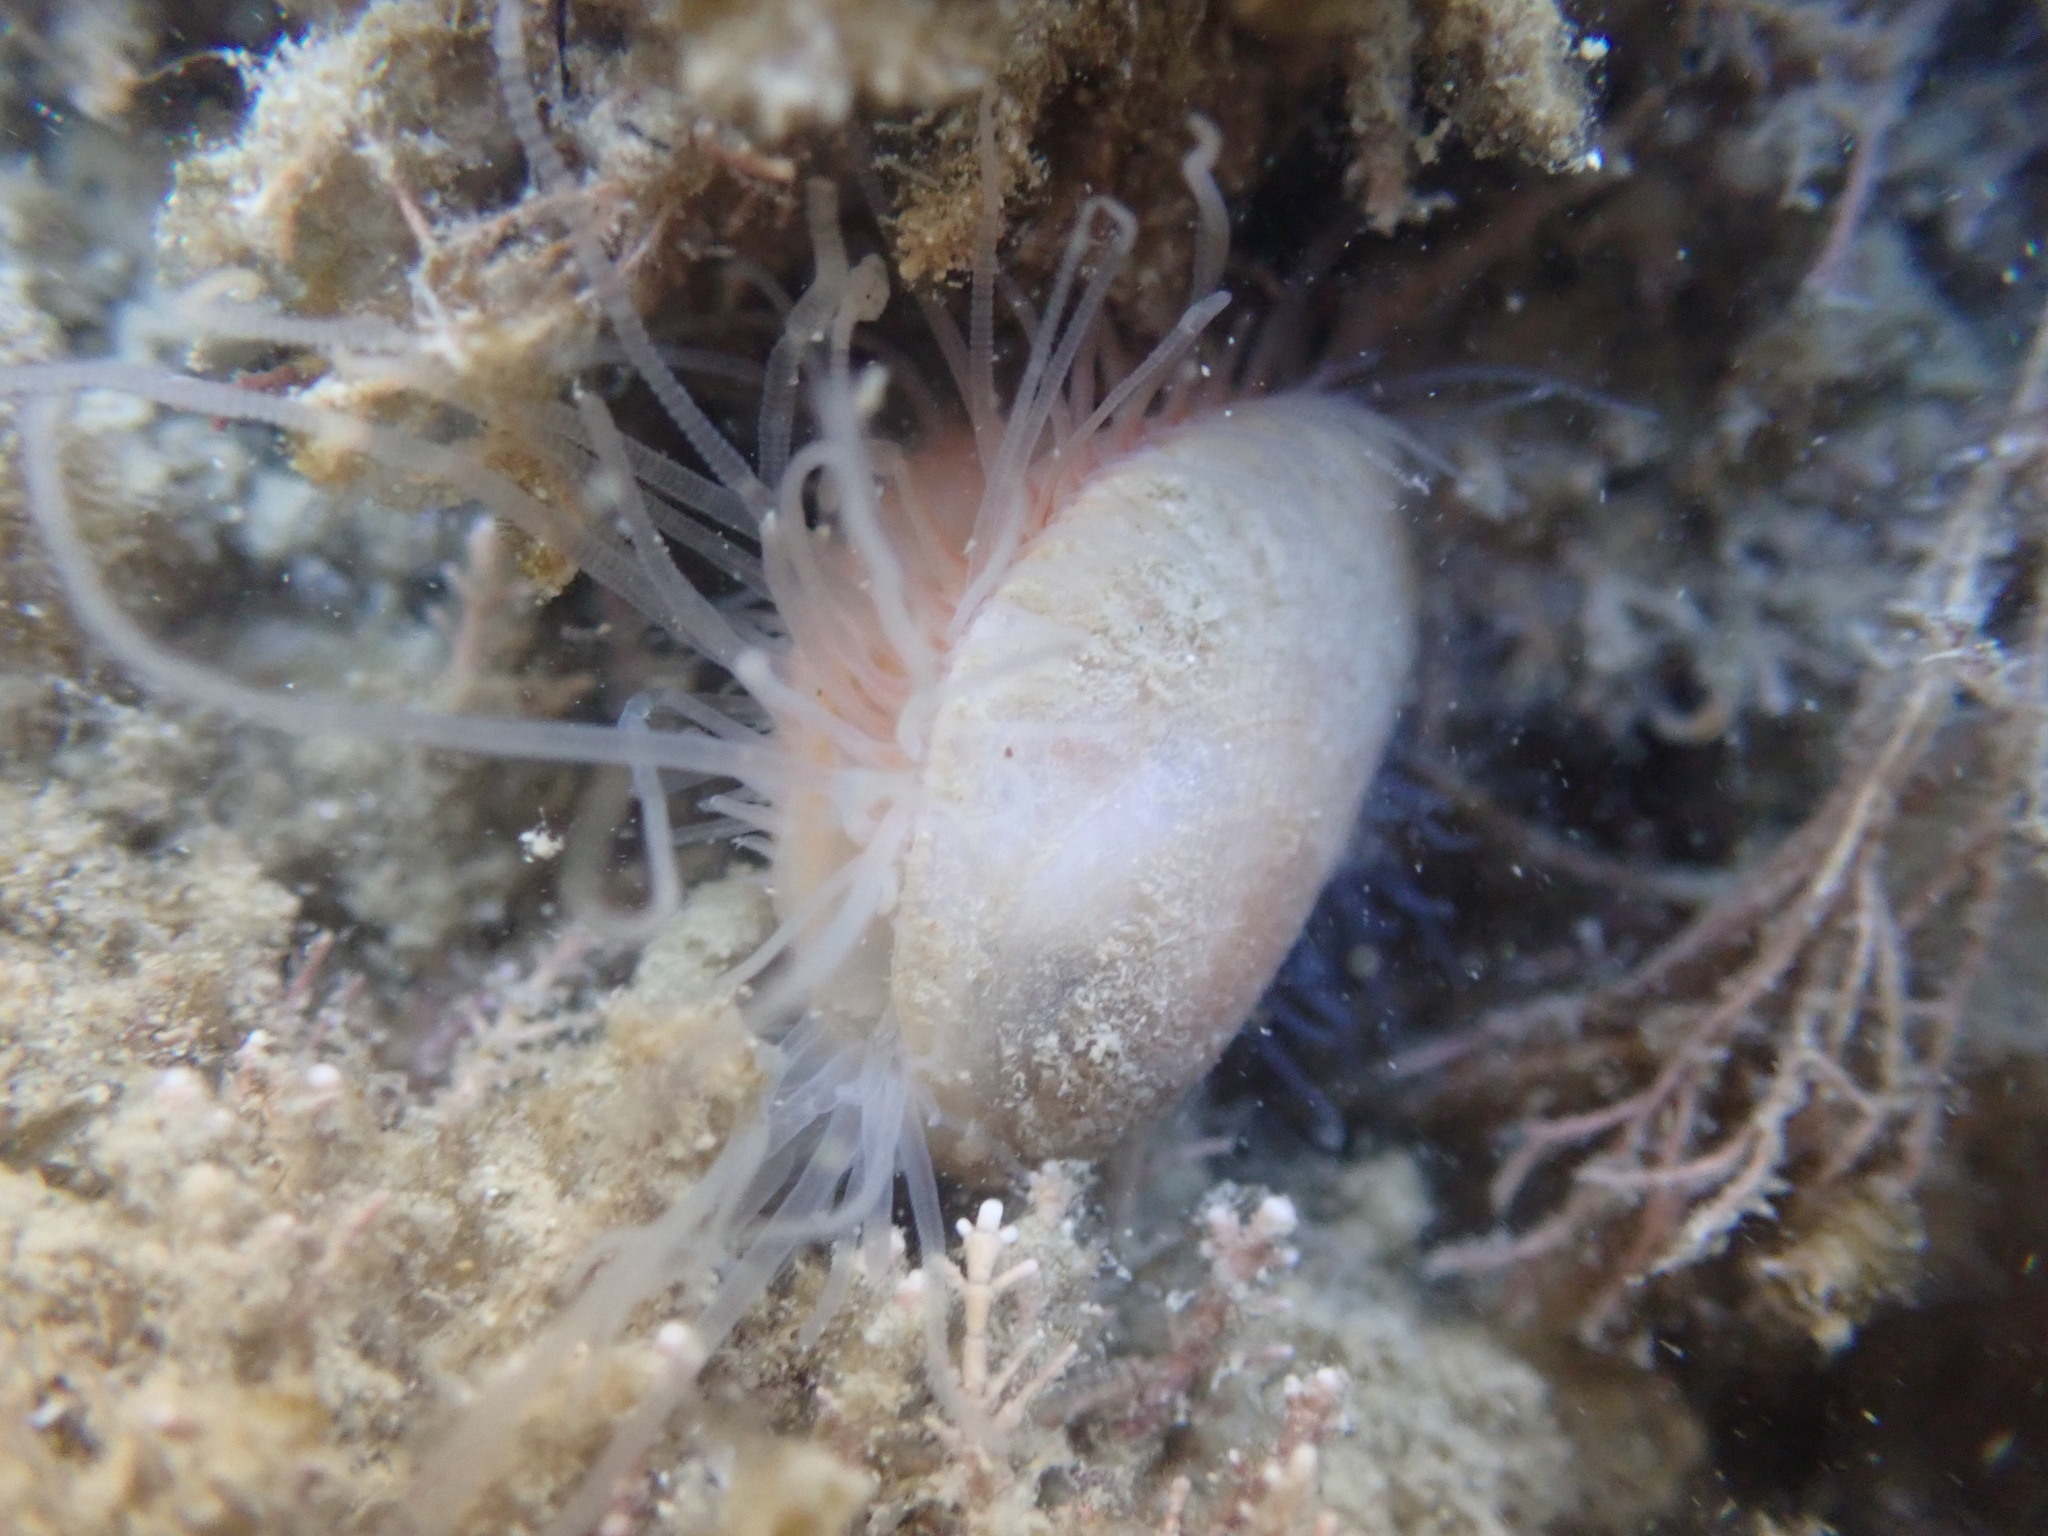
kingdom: Animalia
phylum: Mollusca
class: Bivalvia
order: Limida
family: Limidae
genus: Limaria
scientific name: Limaria orientalis
